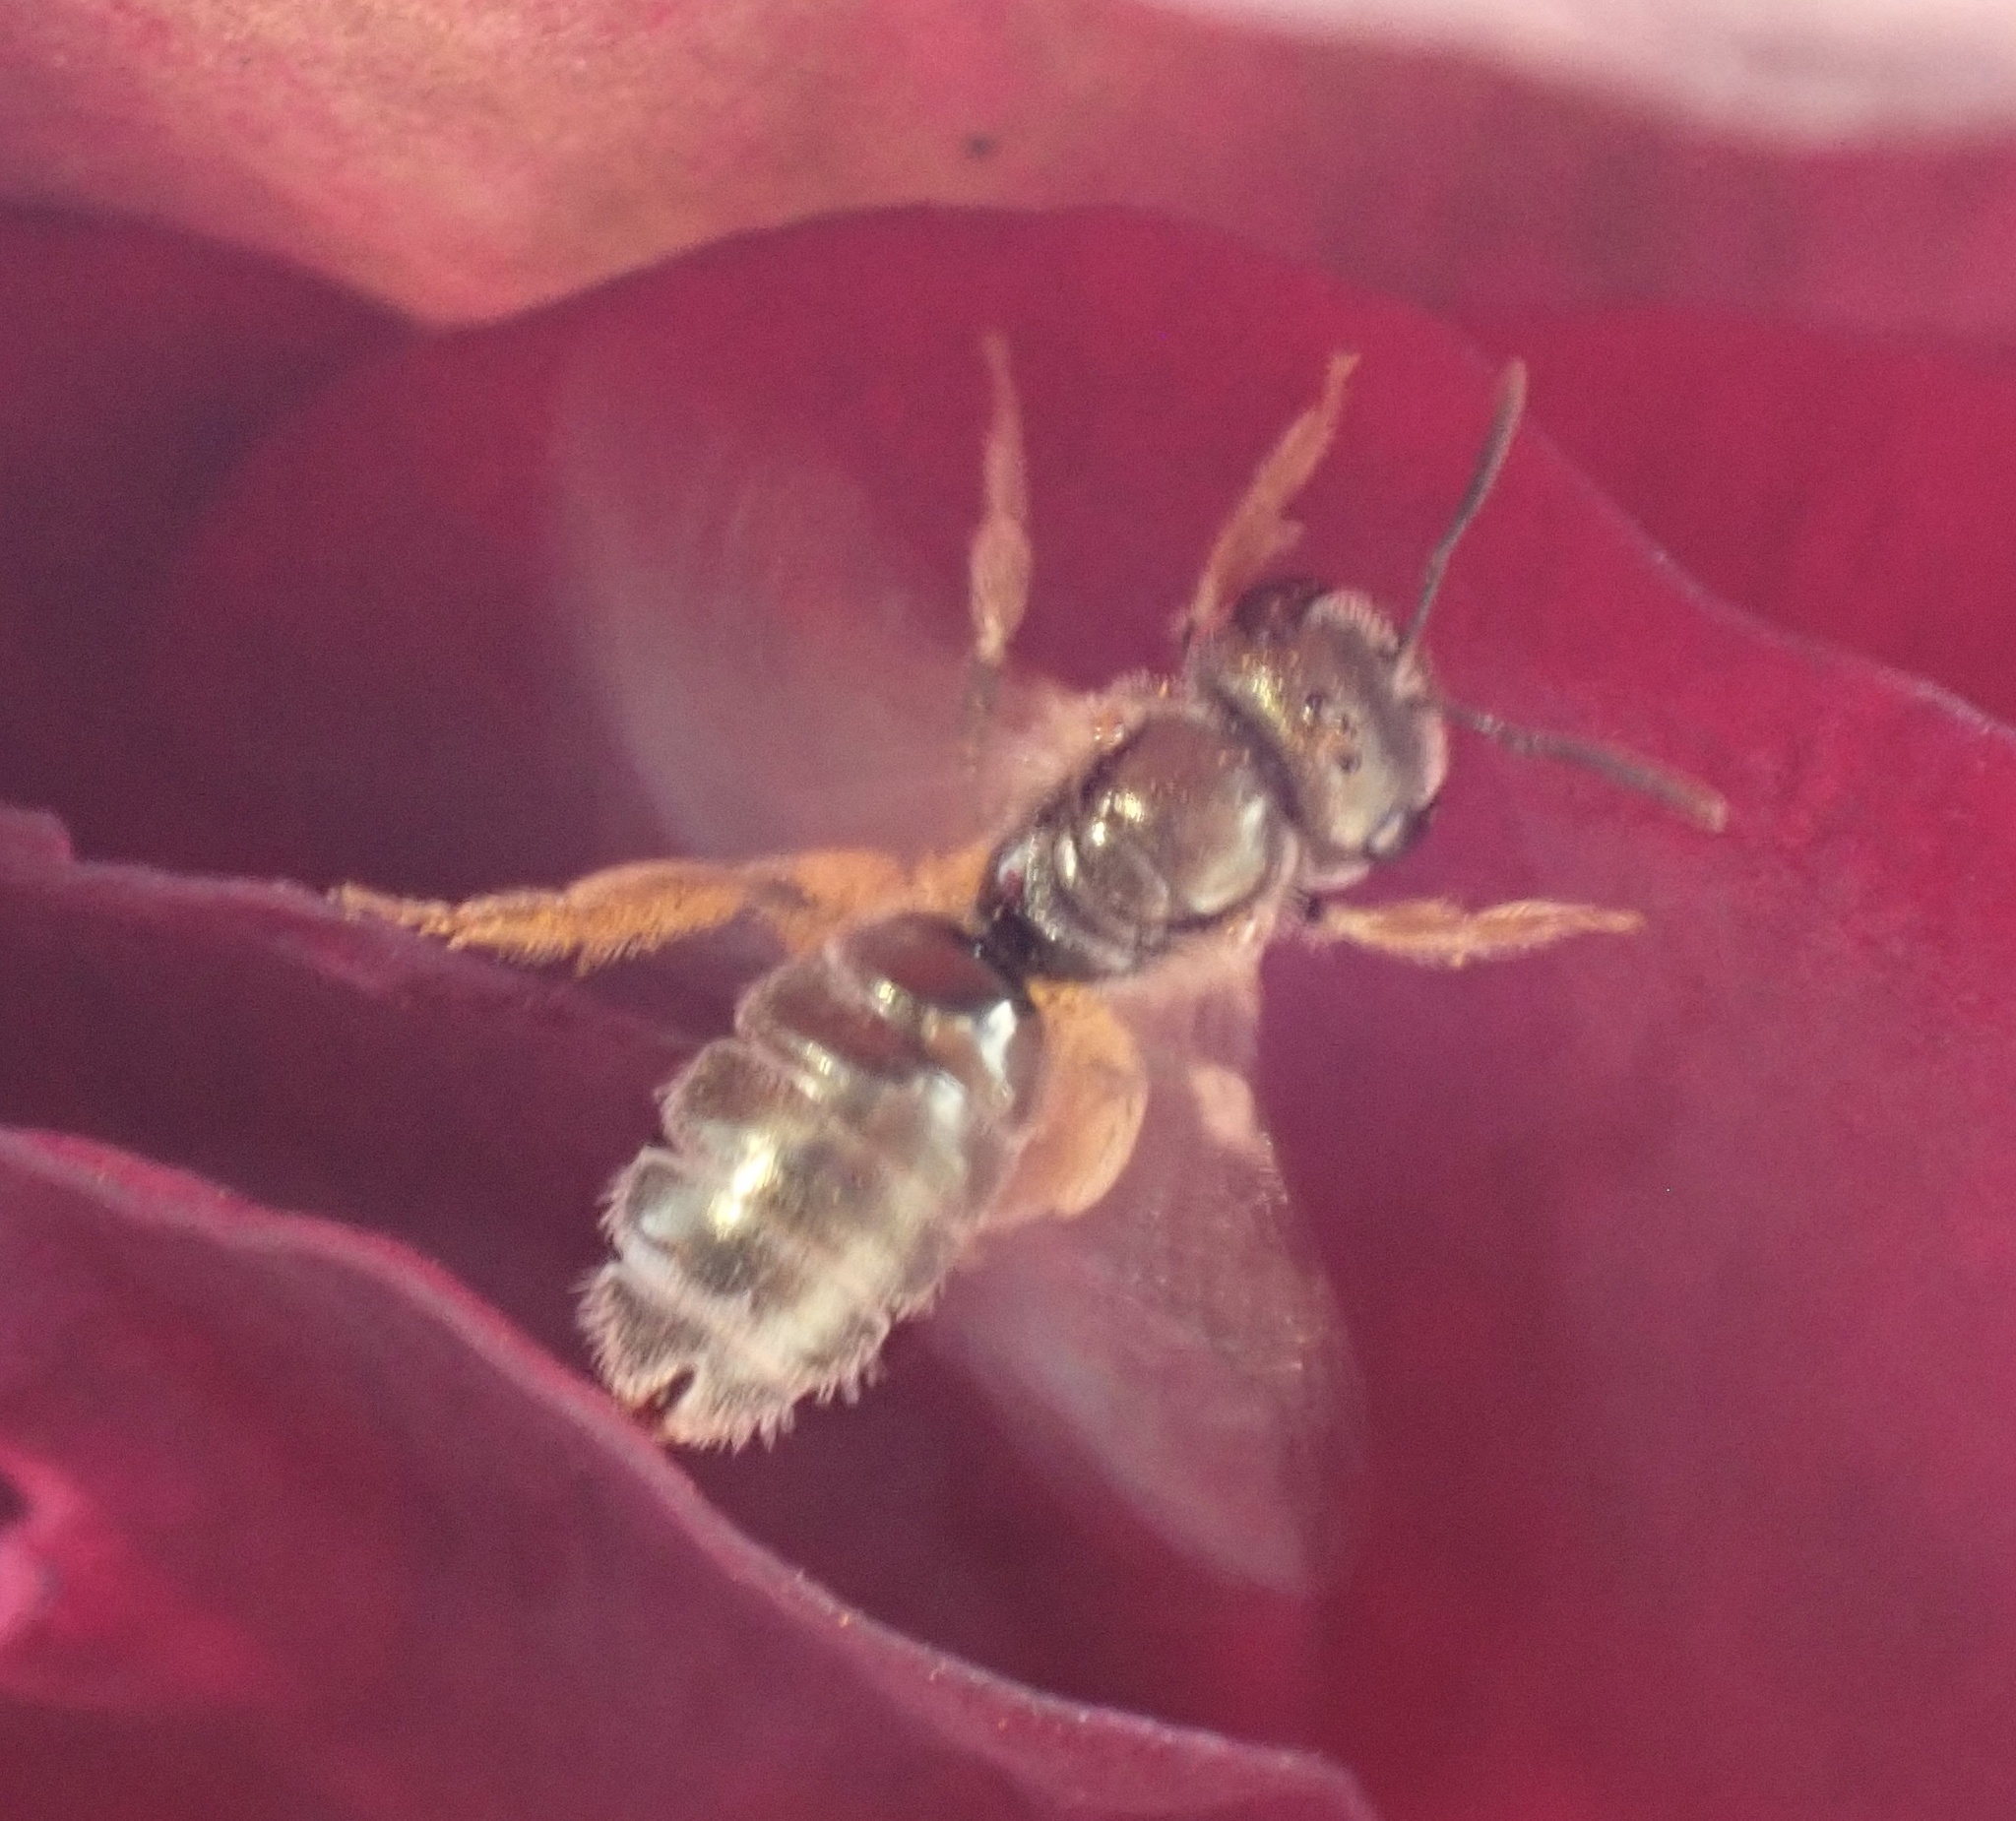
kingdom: Animalia
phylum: Arthropoda
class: Insecta
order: Hymenoptera
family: Halictidae
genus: Halictus
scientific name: Halictus gemmeus
